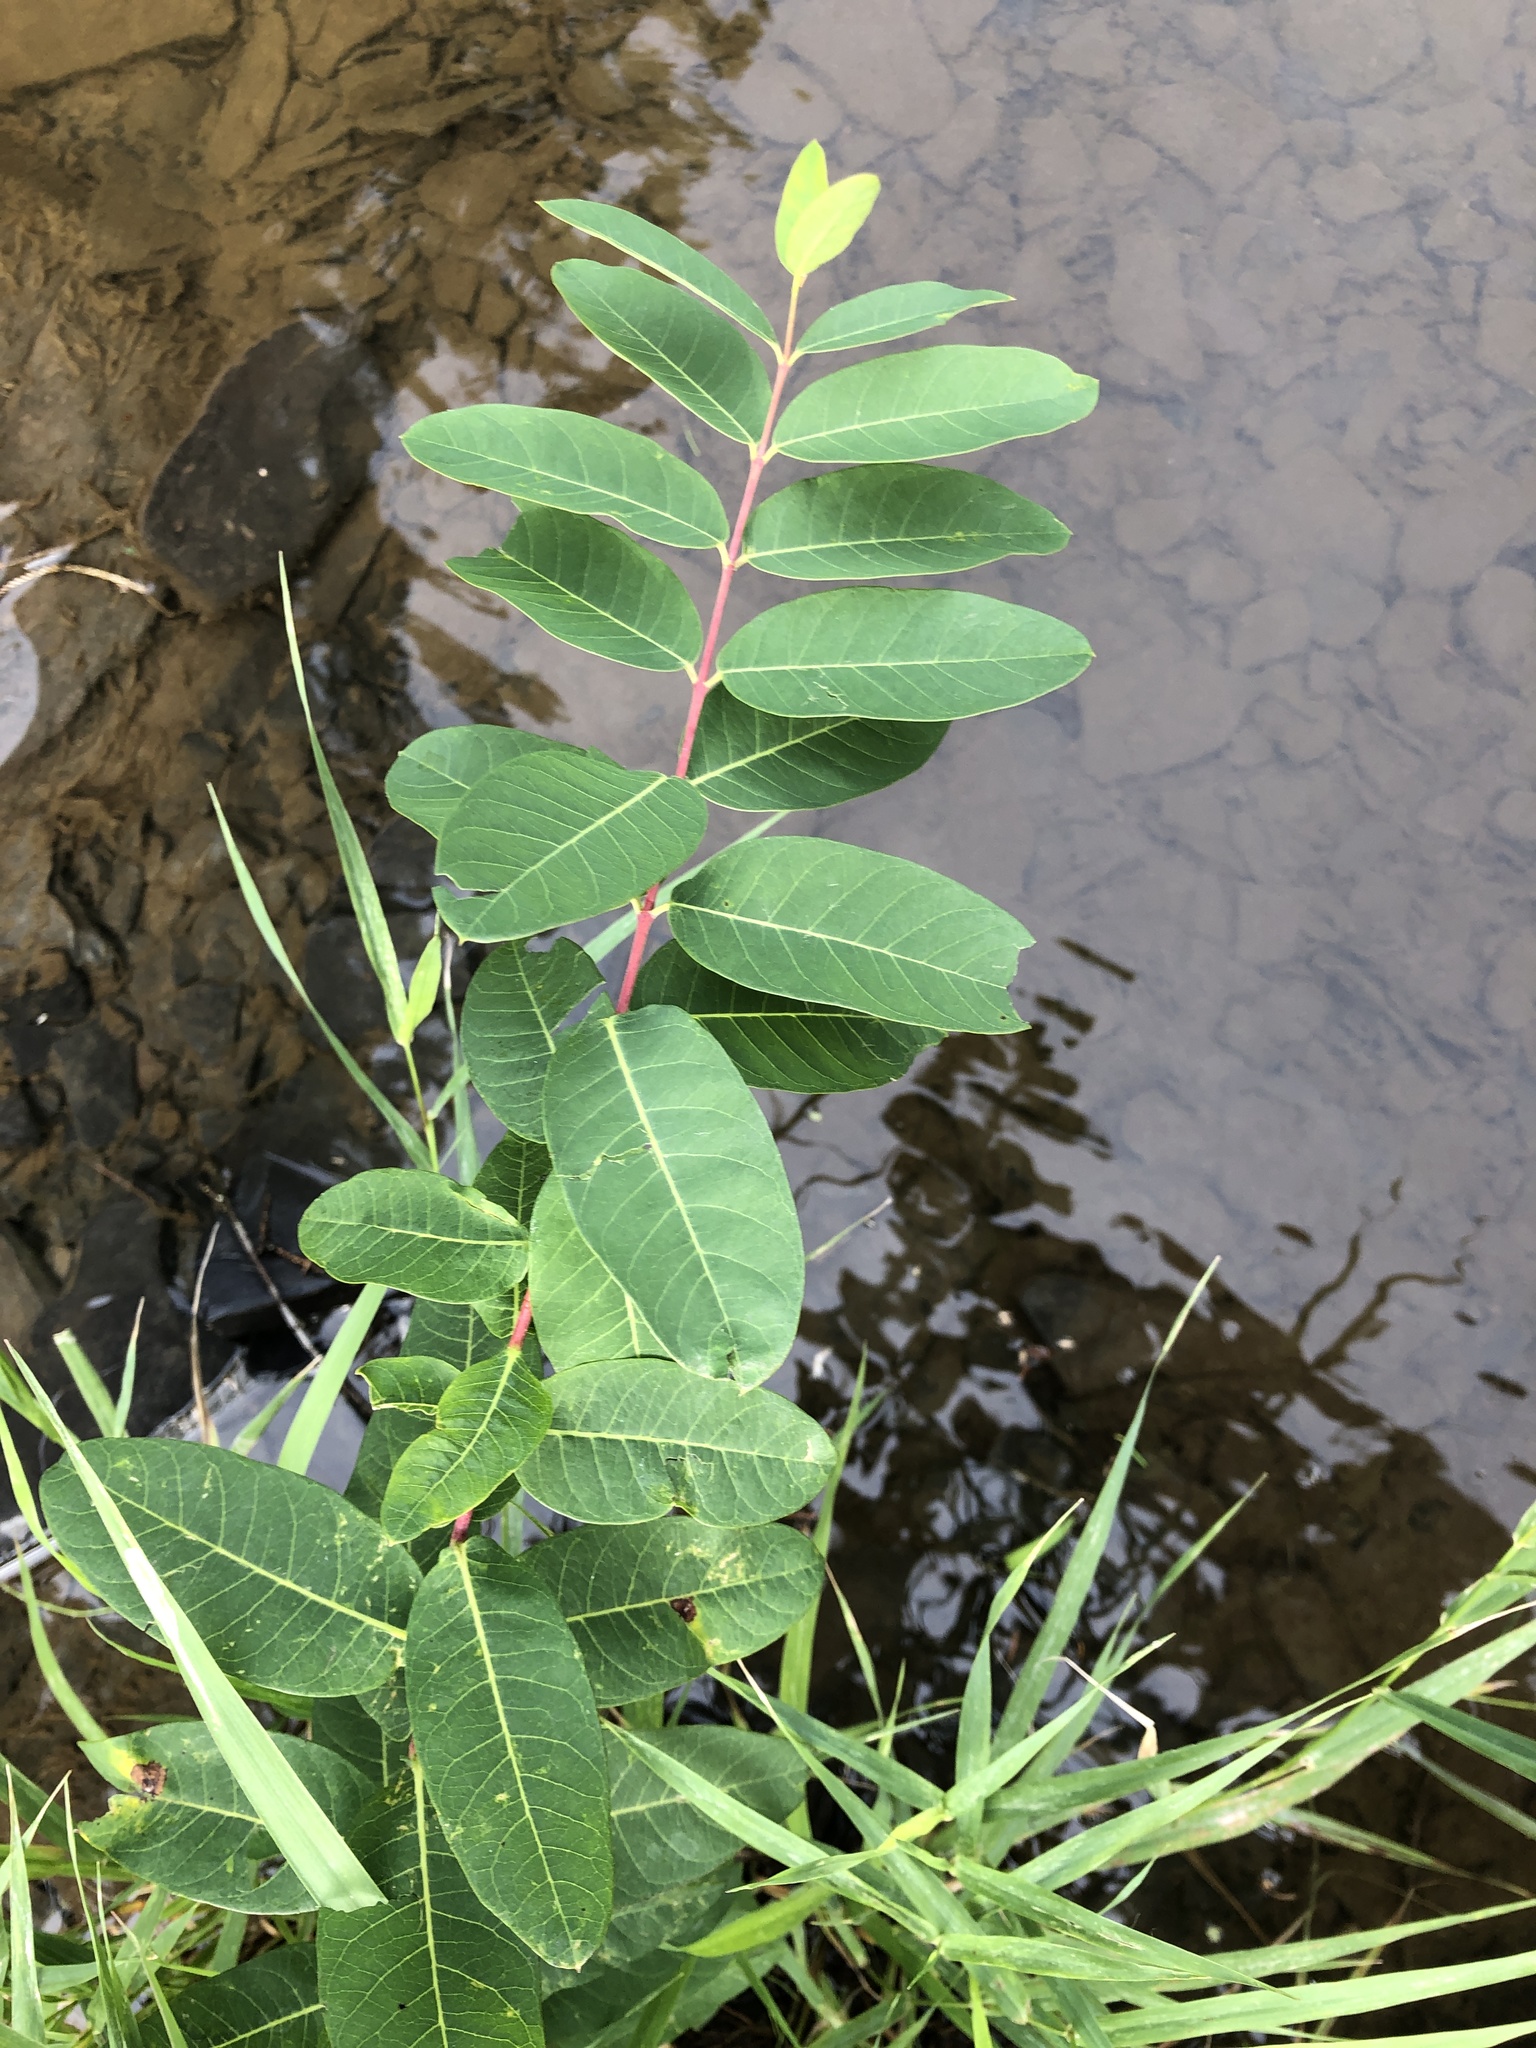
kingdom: Plantae
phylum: Tracheophyta
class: Magnoliopsida
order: Gentianales
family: Apocynaceae
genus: Apocynum
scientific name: Apocynum cannabinum
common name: Hemp dogbane
